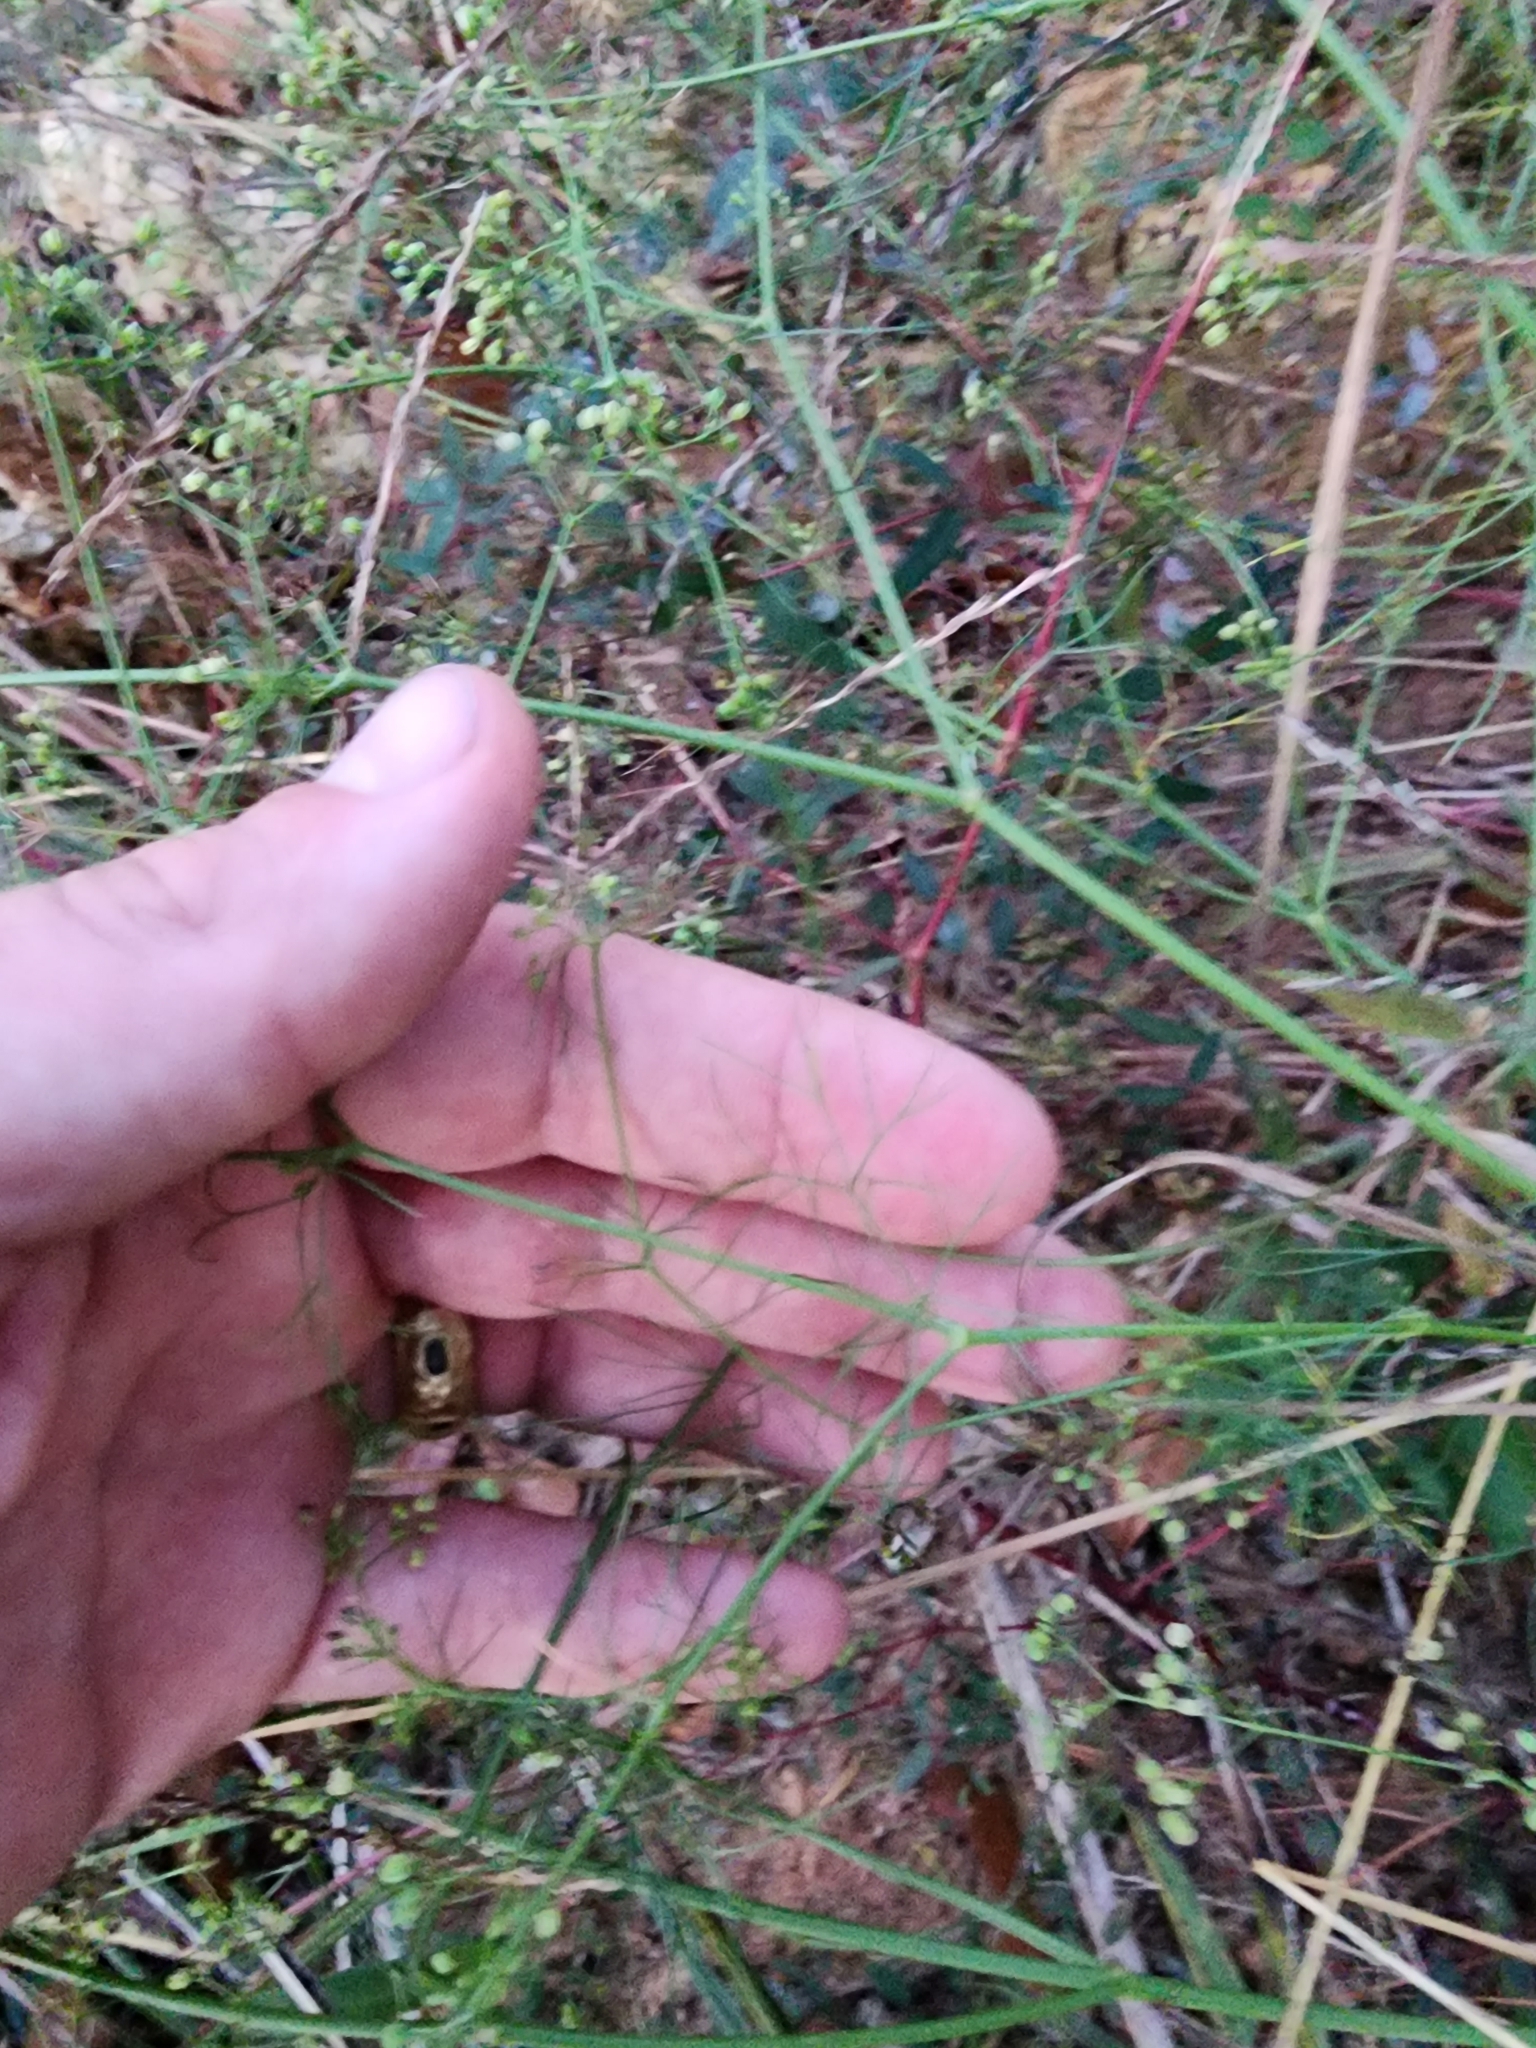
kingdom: Plantae
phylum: Tracheophyta
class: Magnoliopsida
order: Apiales
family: Apiaceae
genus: Cyclospermum
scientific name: Cyclospermum leptophyllum
